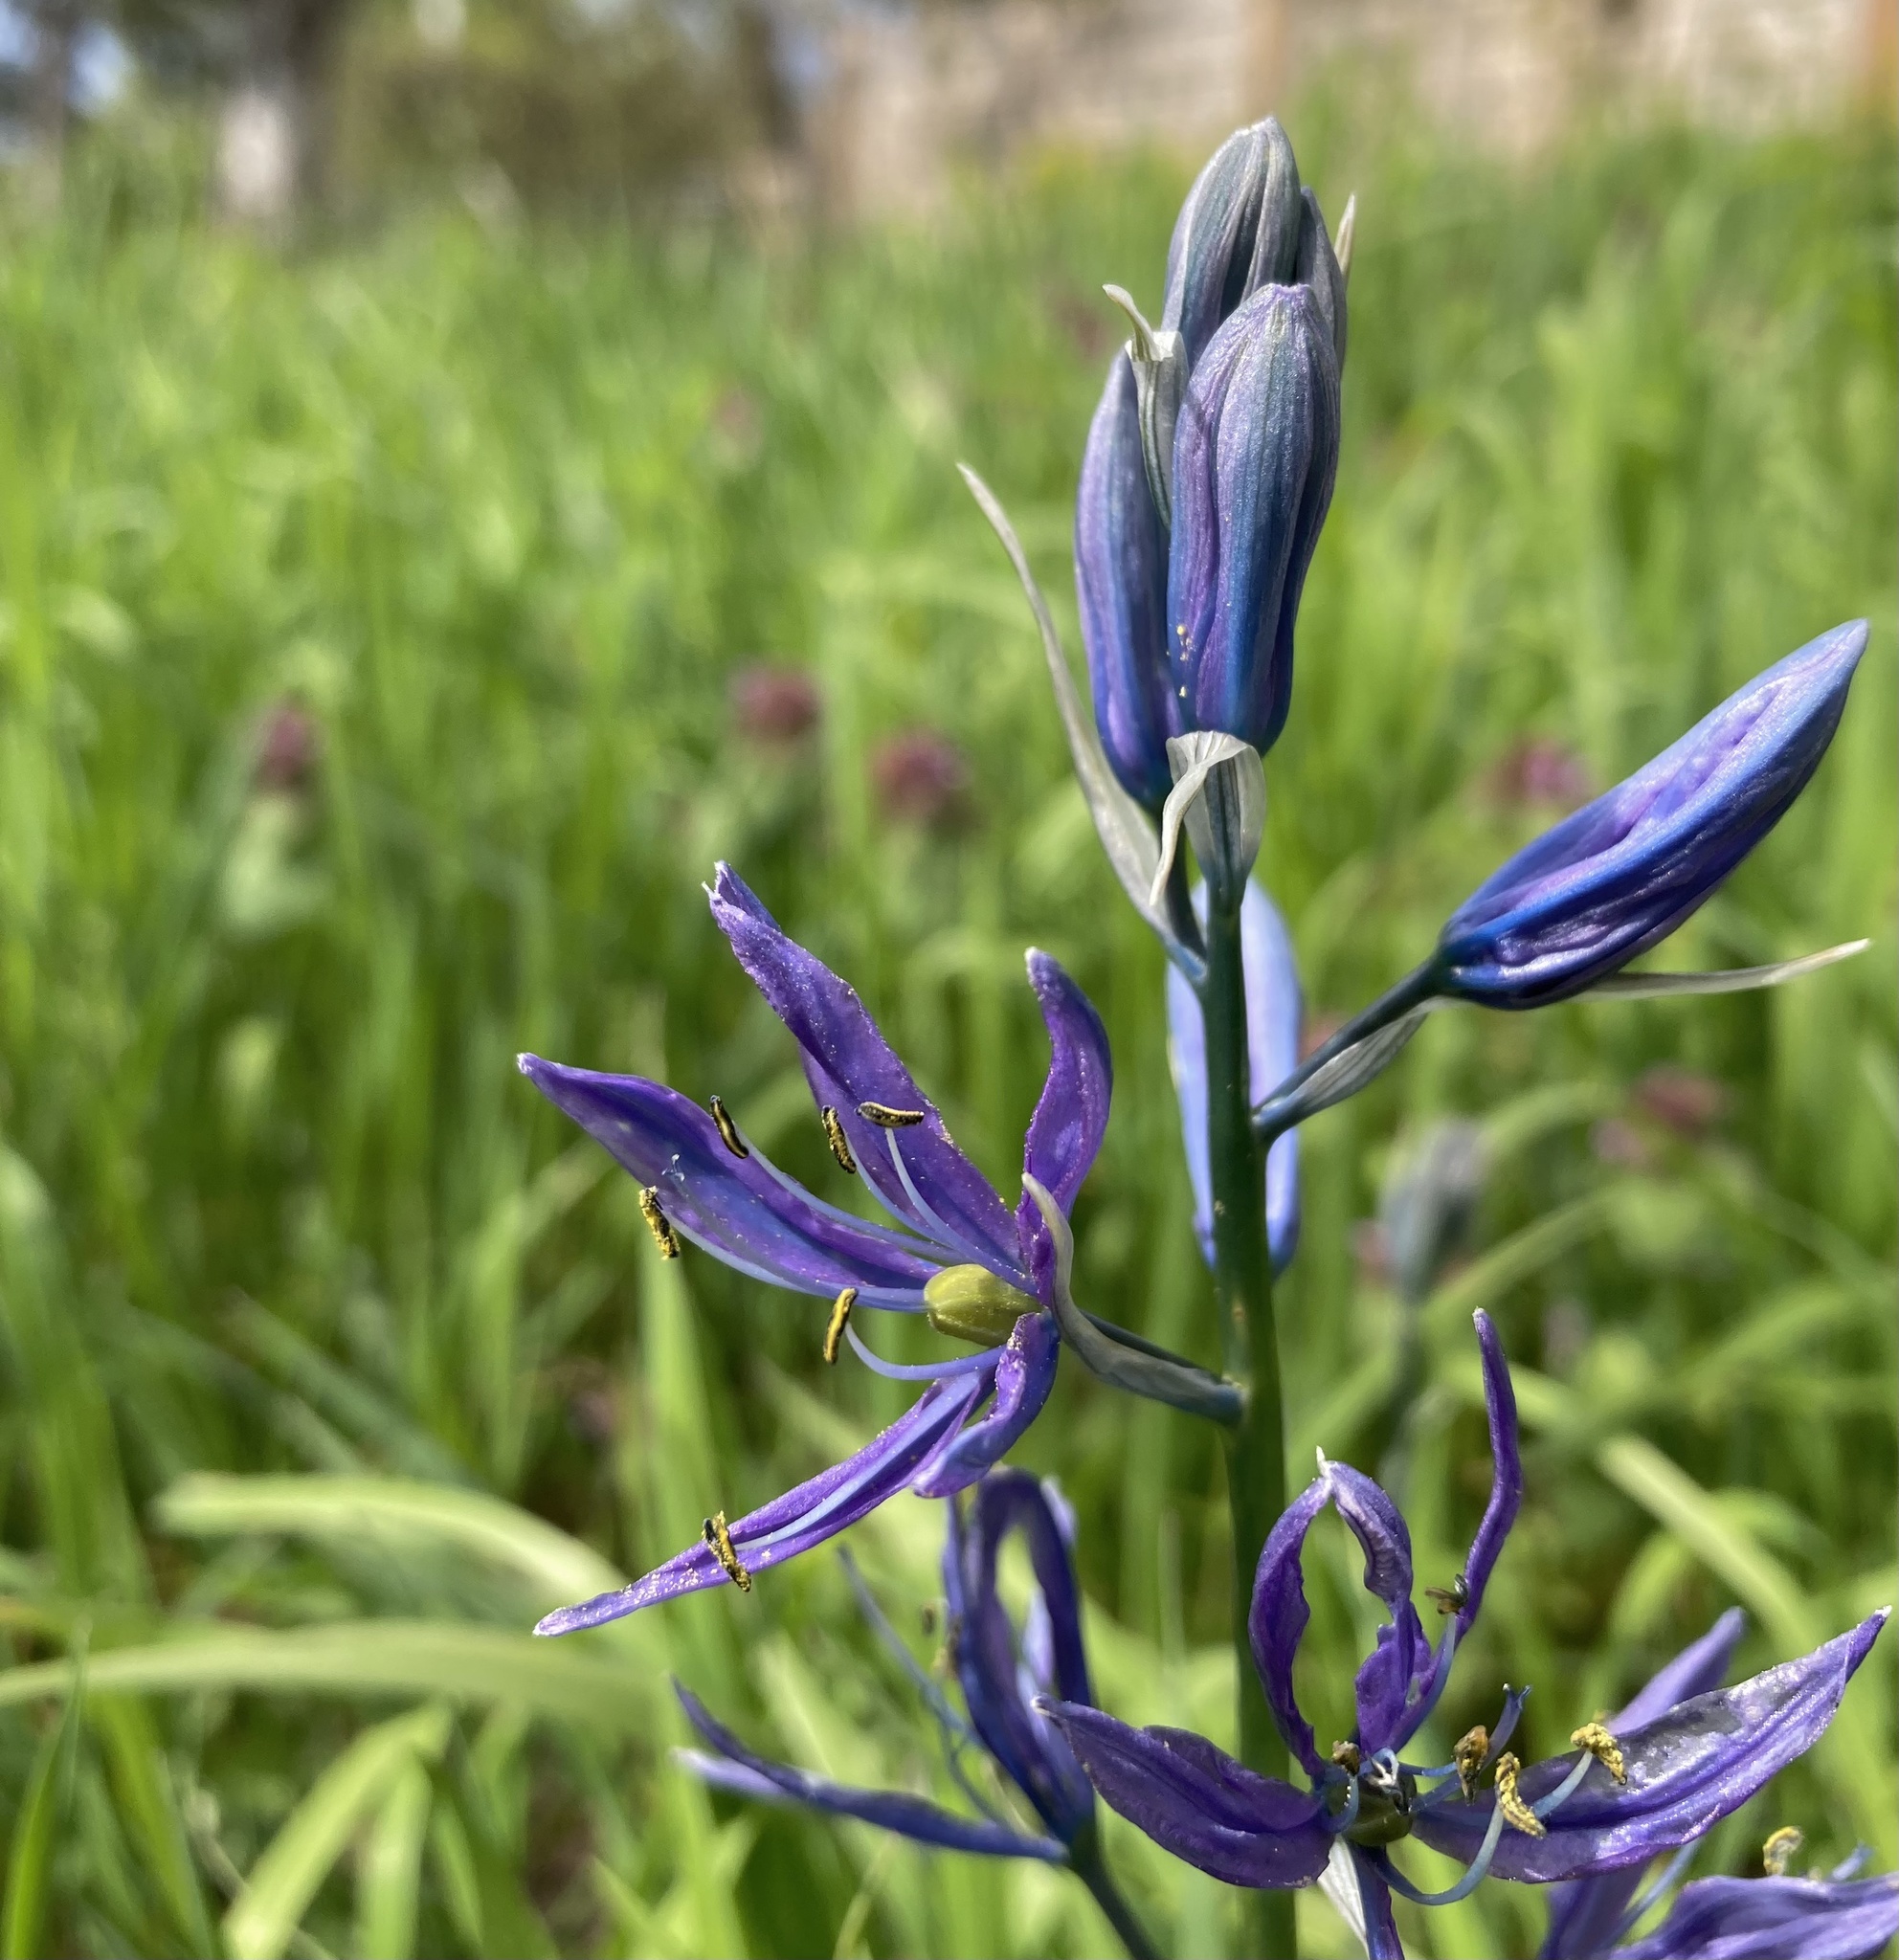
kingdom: Plantae
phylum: Tracheophyta
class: Liliopsida
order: Asparagales
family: Asparagaceae
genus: Camassia
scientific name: Camassia quamash
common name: Common camas
